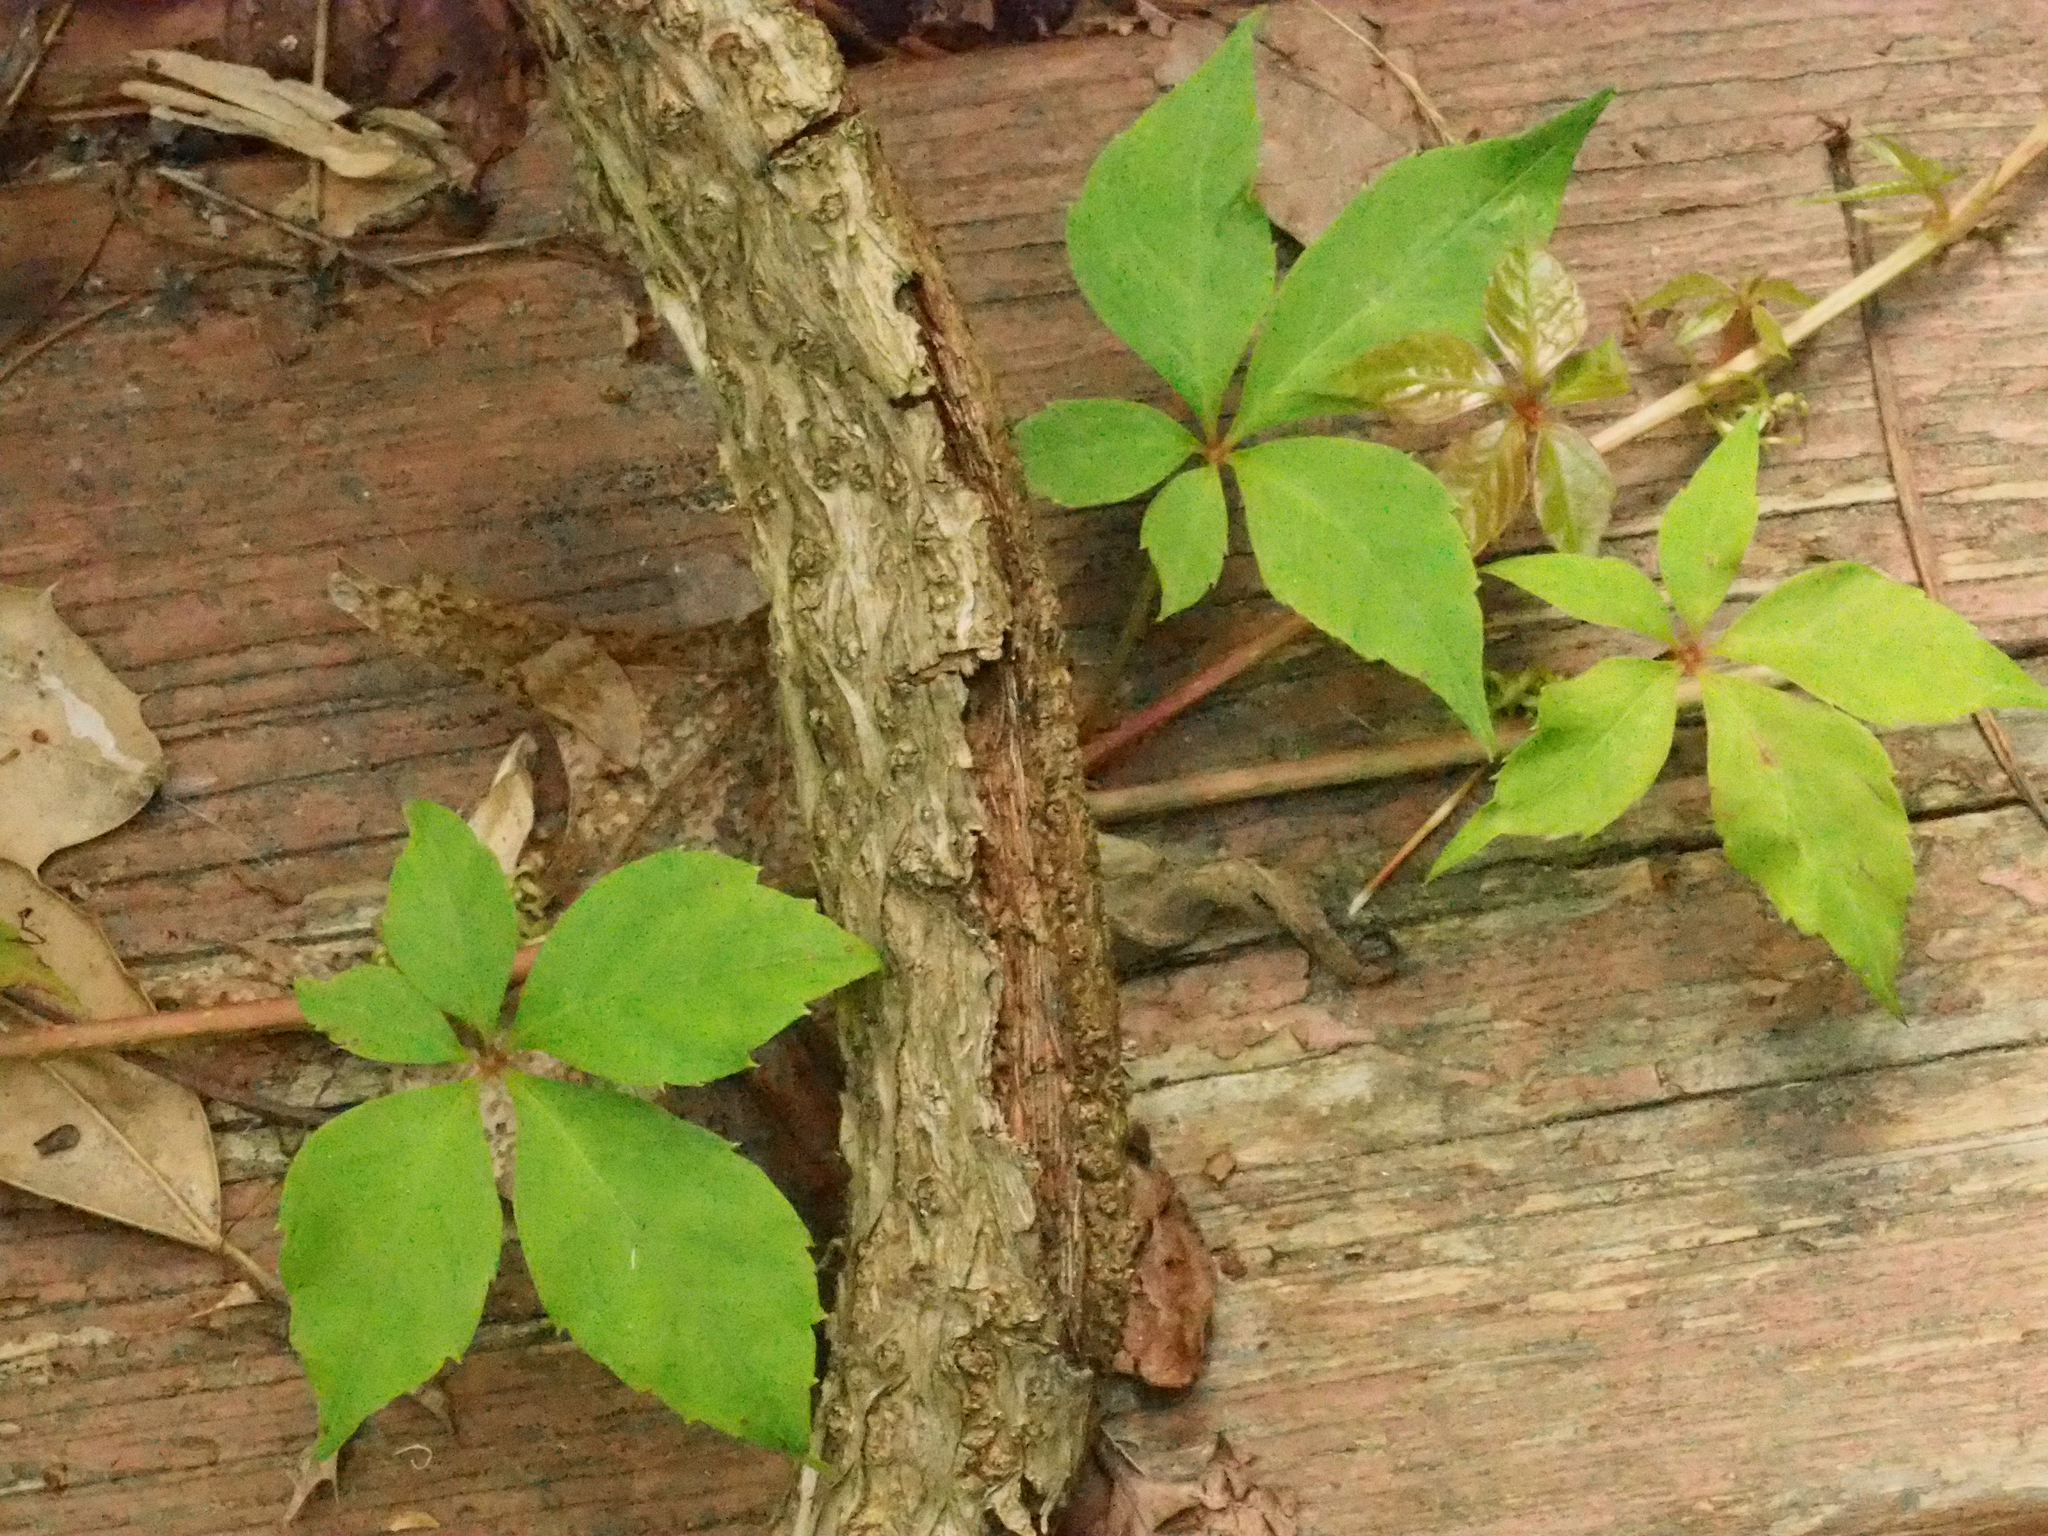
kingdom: Plantae
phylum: Tracheophyta
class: Magnoliopsida
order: Vitales
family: Vitaceae
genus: Parthenocissus
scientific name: Parthenocissus quinquefolia
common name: Virginia-creeper
